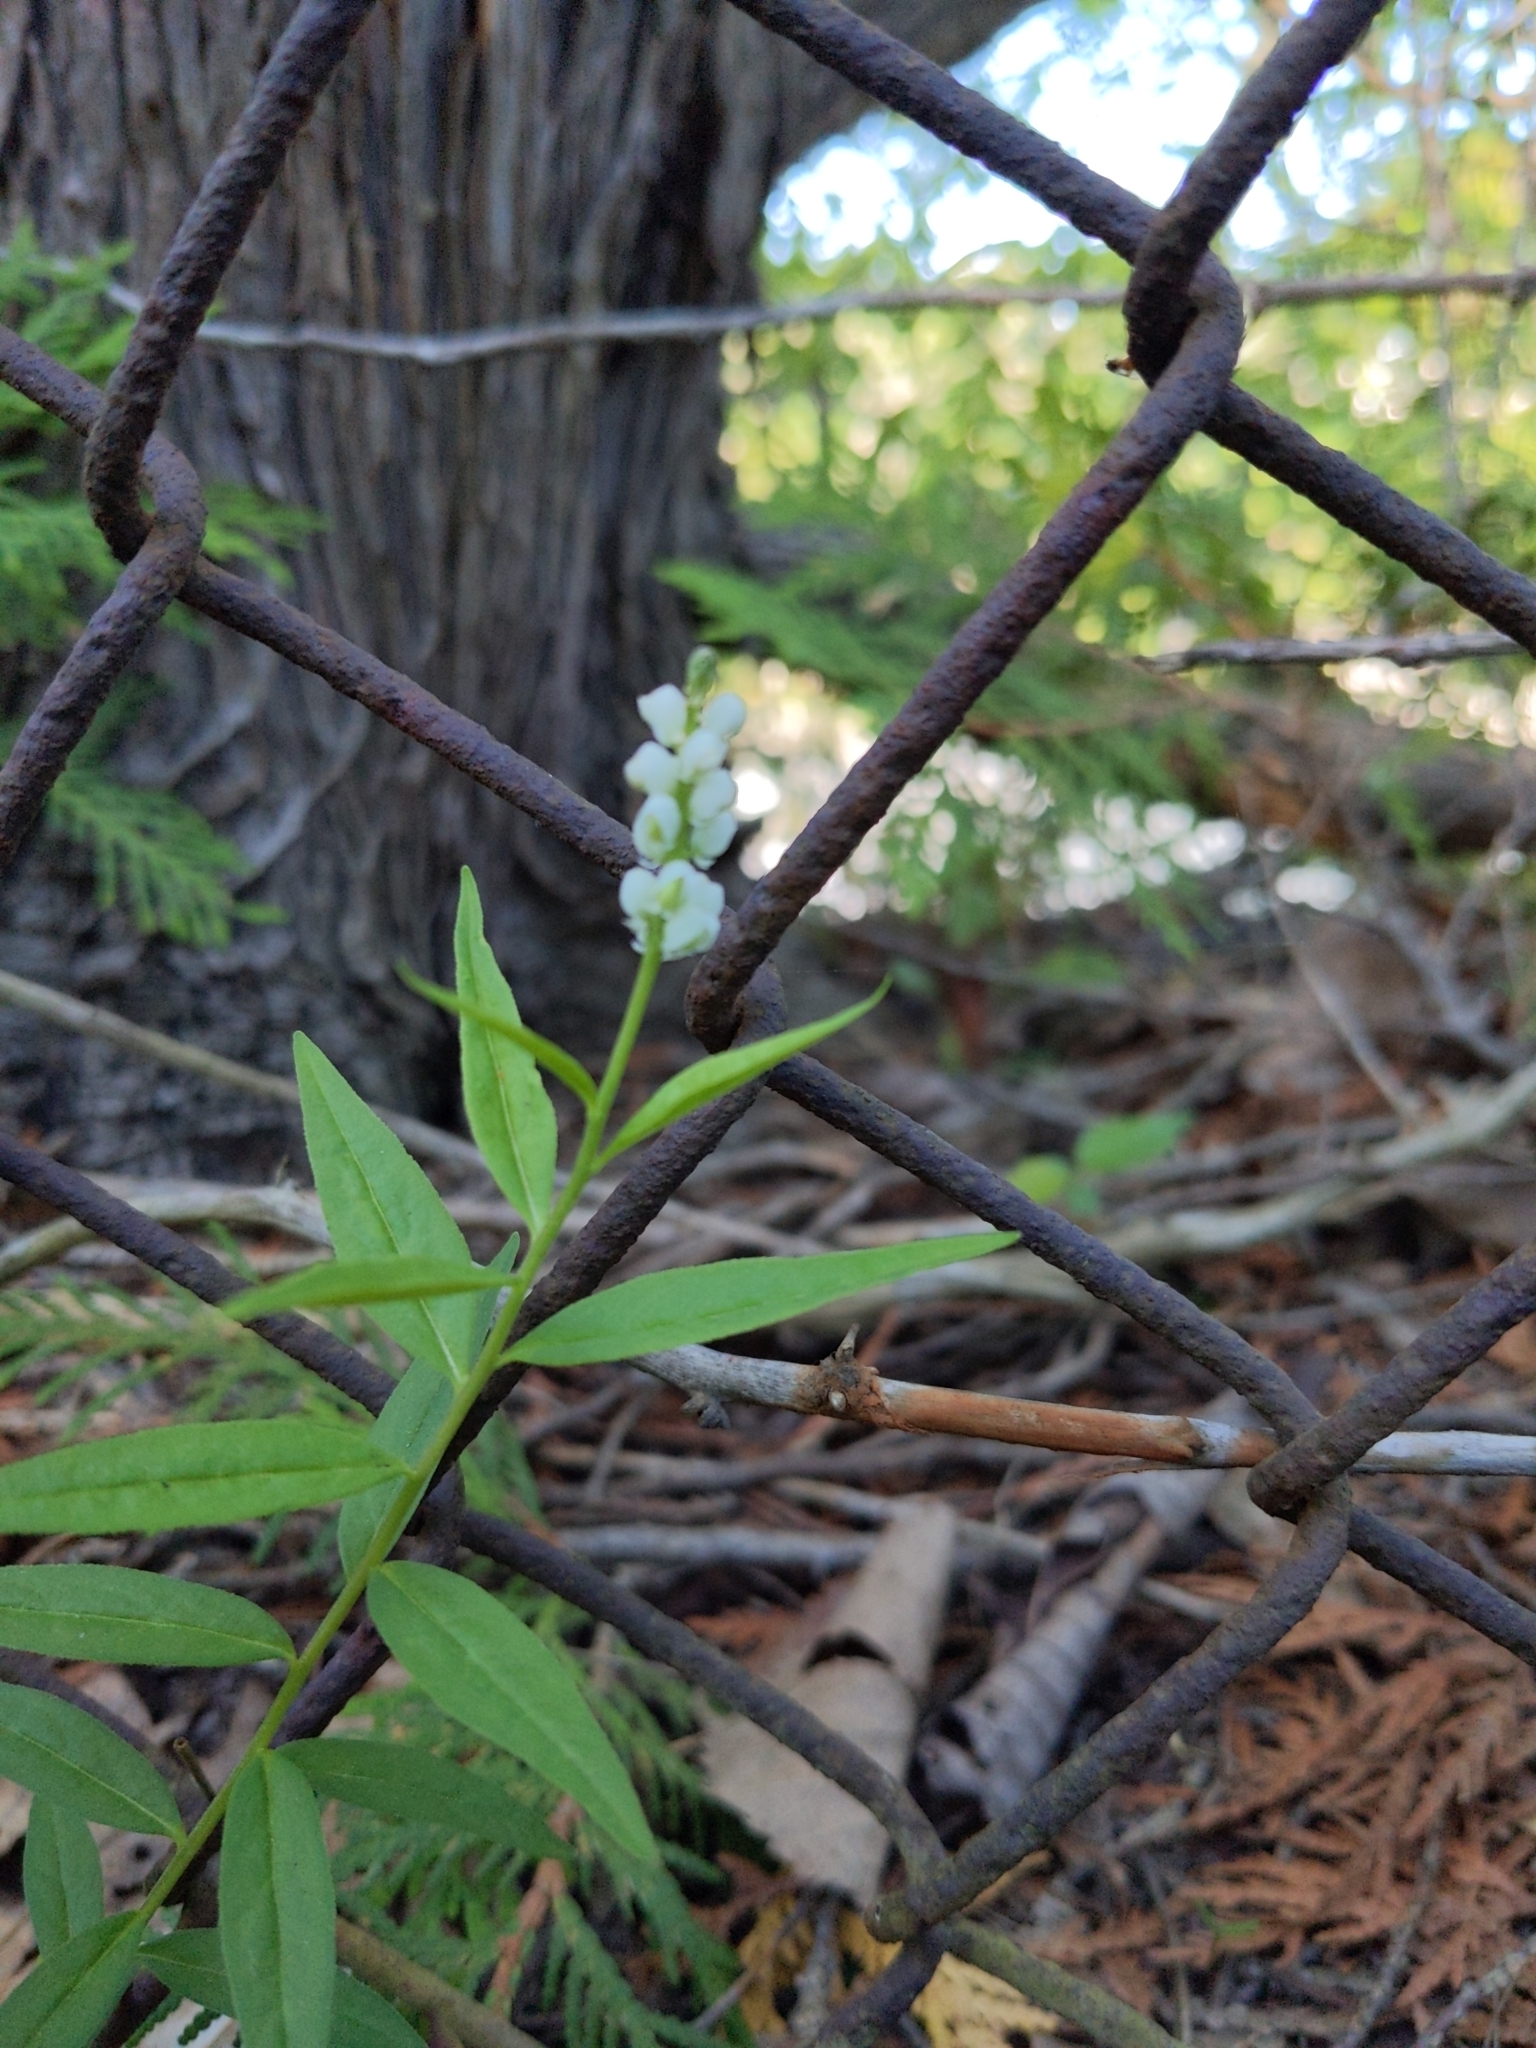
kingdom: Plantae
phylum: Tracheophyta
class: Magnoliopsida
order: Fabales
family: Polygalaceae
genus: Polygala
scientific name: Polygala senega
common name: Seneca snakeroot
